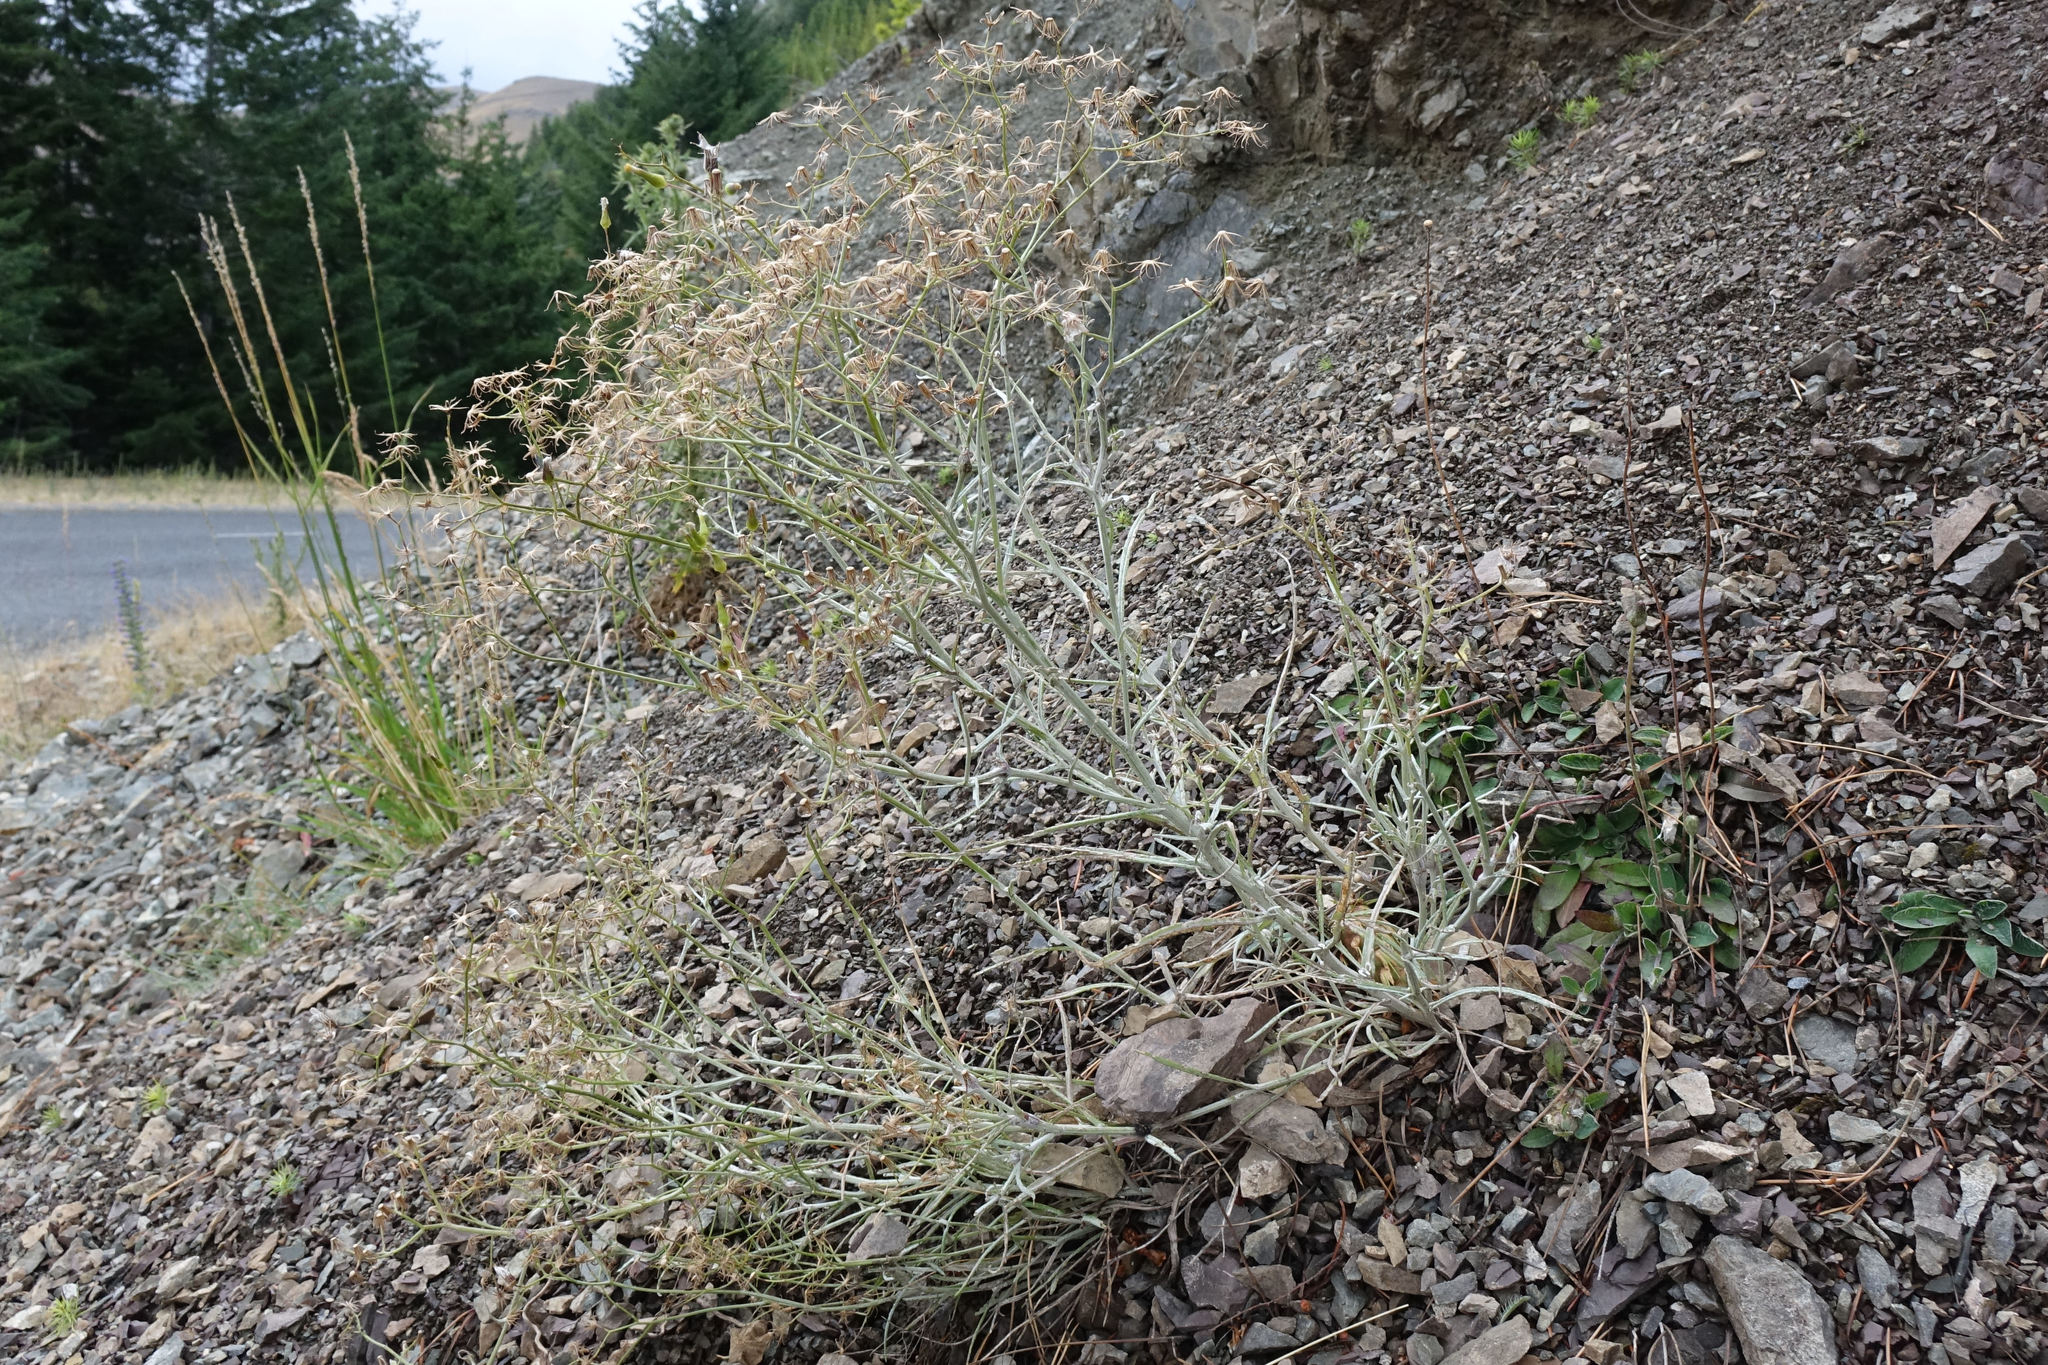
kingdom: Plantae
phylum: Tracheophyta
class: Magnoliopsida
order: Asterales
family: Asteraceae
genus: Senecio
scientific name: Senecio quadridentatus
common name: Cotton fireweed
